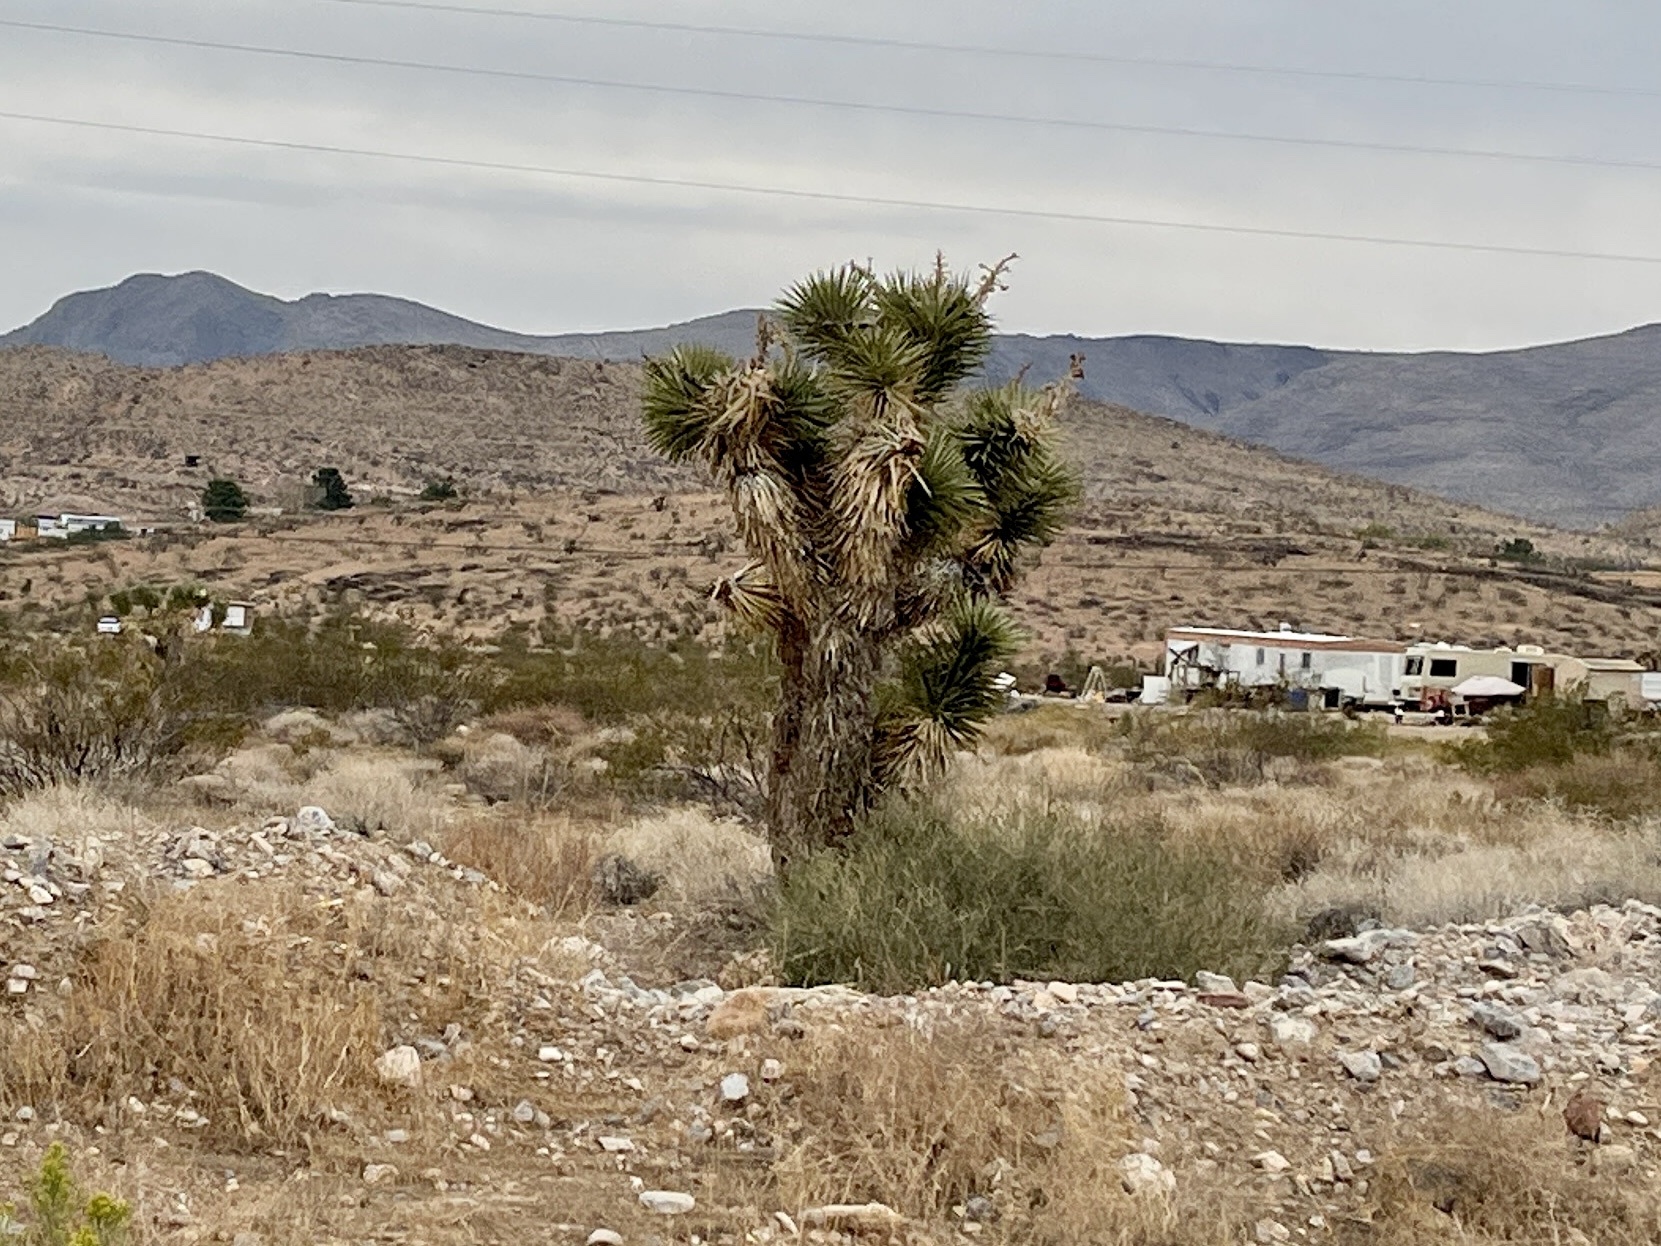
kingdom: Plantae
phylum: Tracheophyta
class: Liliopsida
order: Asparagales
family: Asparagaceae
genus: Yucca
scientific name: Yucca brevifolia
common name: Joshua tree
